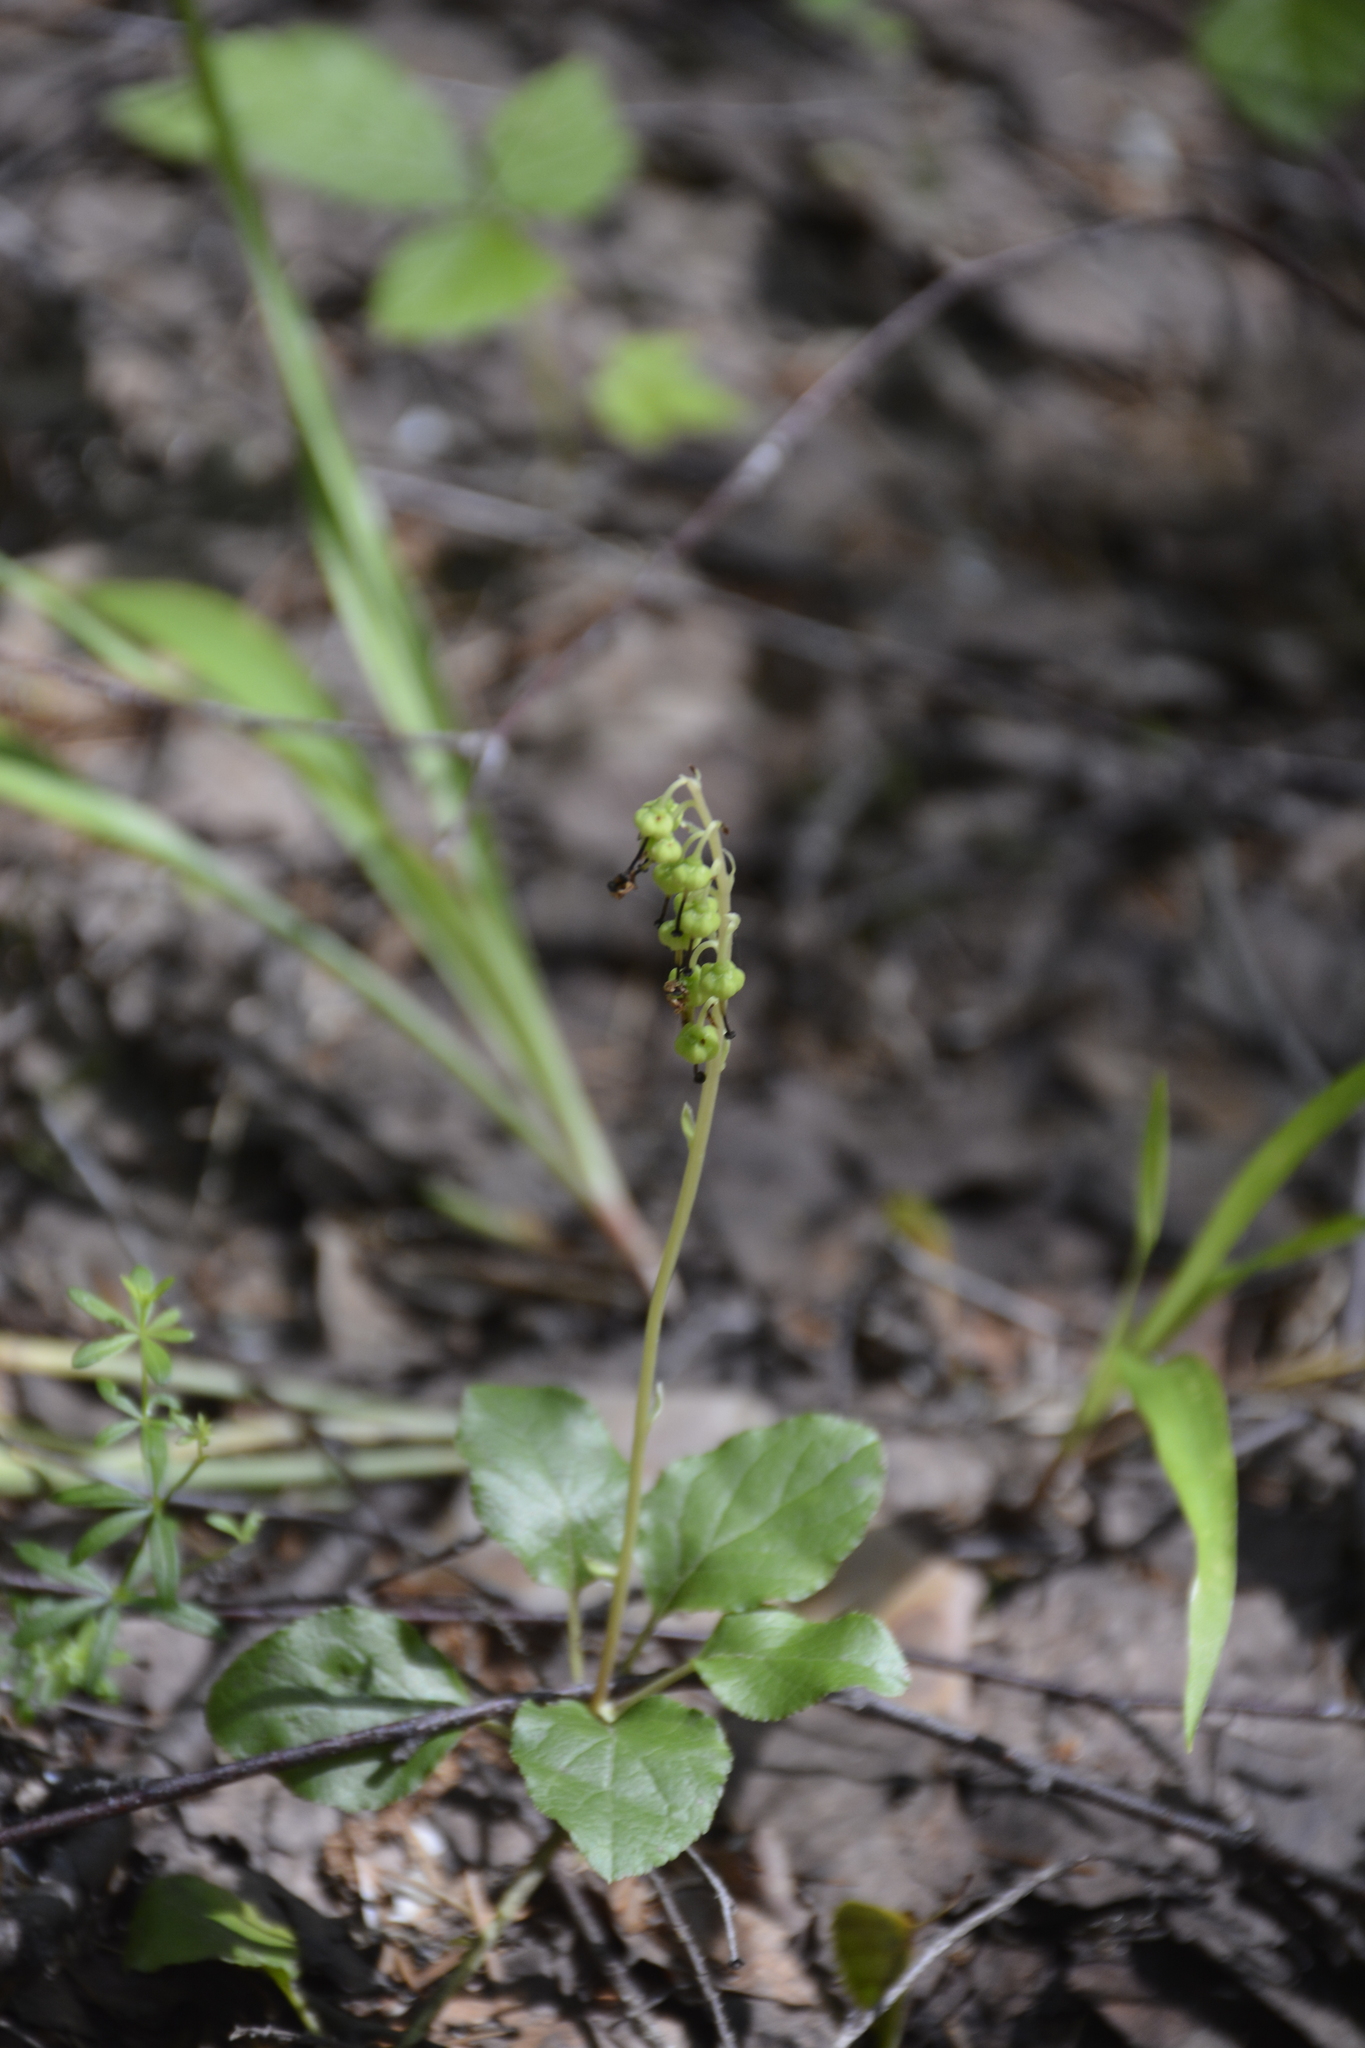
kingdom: Plantae
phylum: Tracheophyta
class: Magnoliopsida
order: Ericales
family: Ericaceae
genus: Orthilia
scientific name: Orthilia secunda
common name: One-sided orthilia
